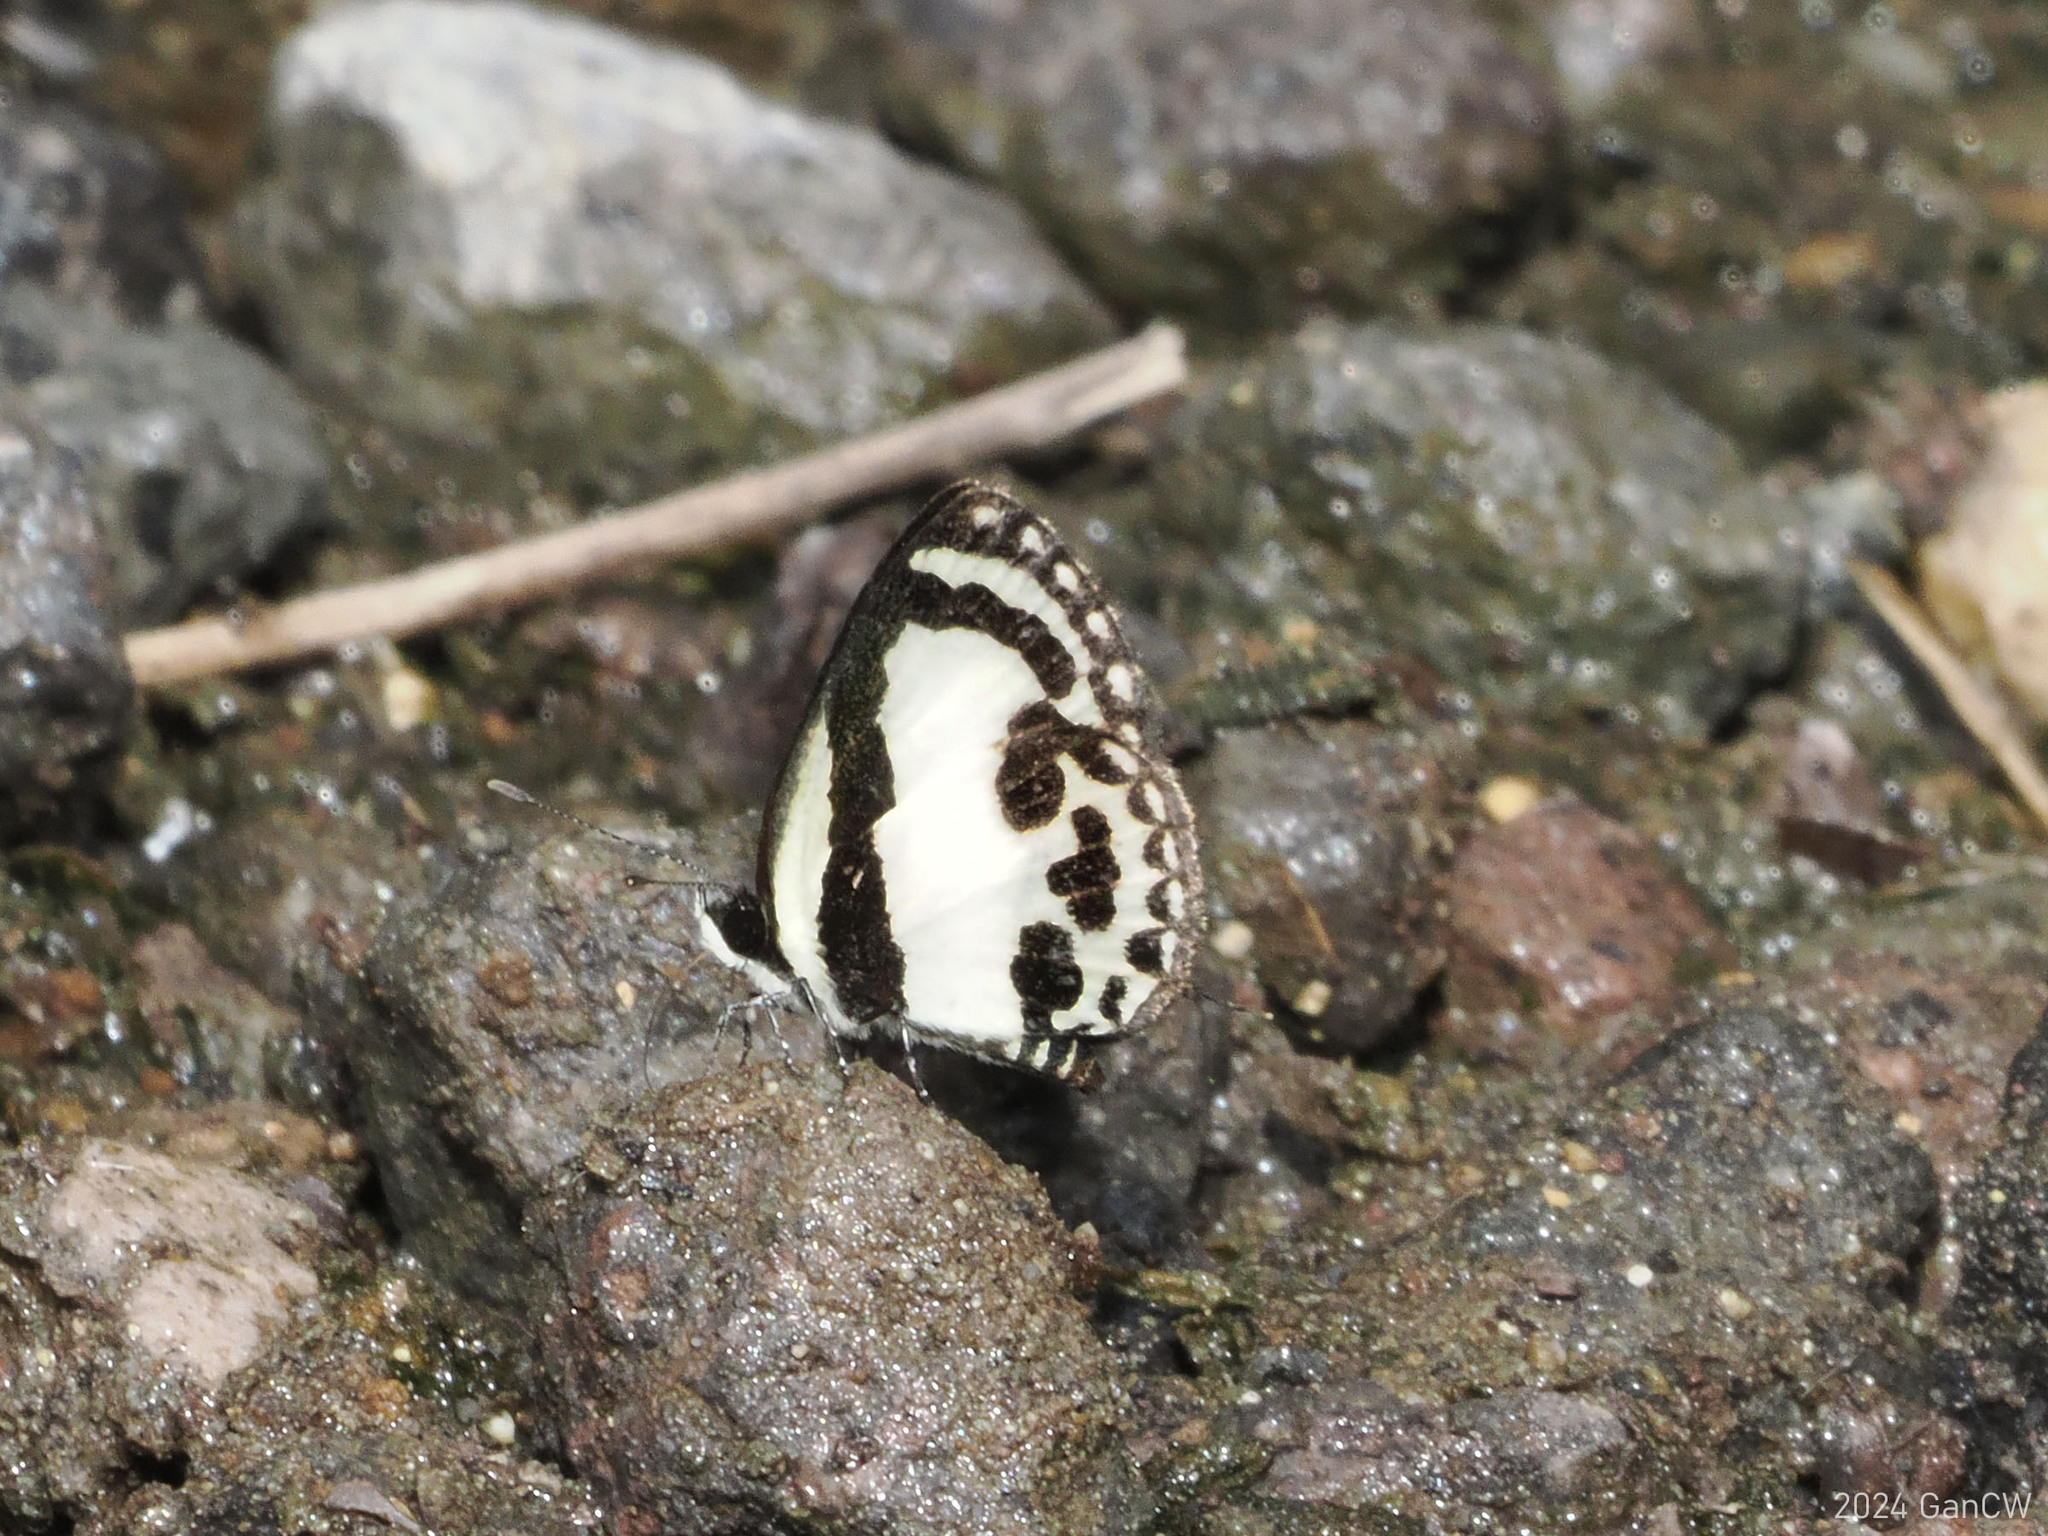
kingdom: Animalia
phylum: Arthropoda
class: Insecta
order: Lepidoptera
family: Lycaenidae
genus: Caleta
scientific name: Caleta roxus
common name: Straight pierrot
